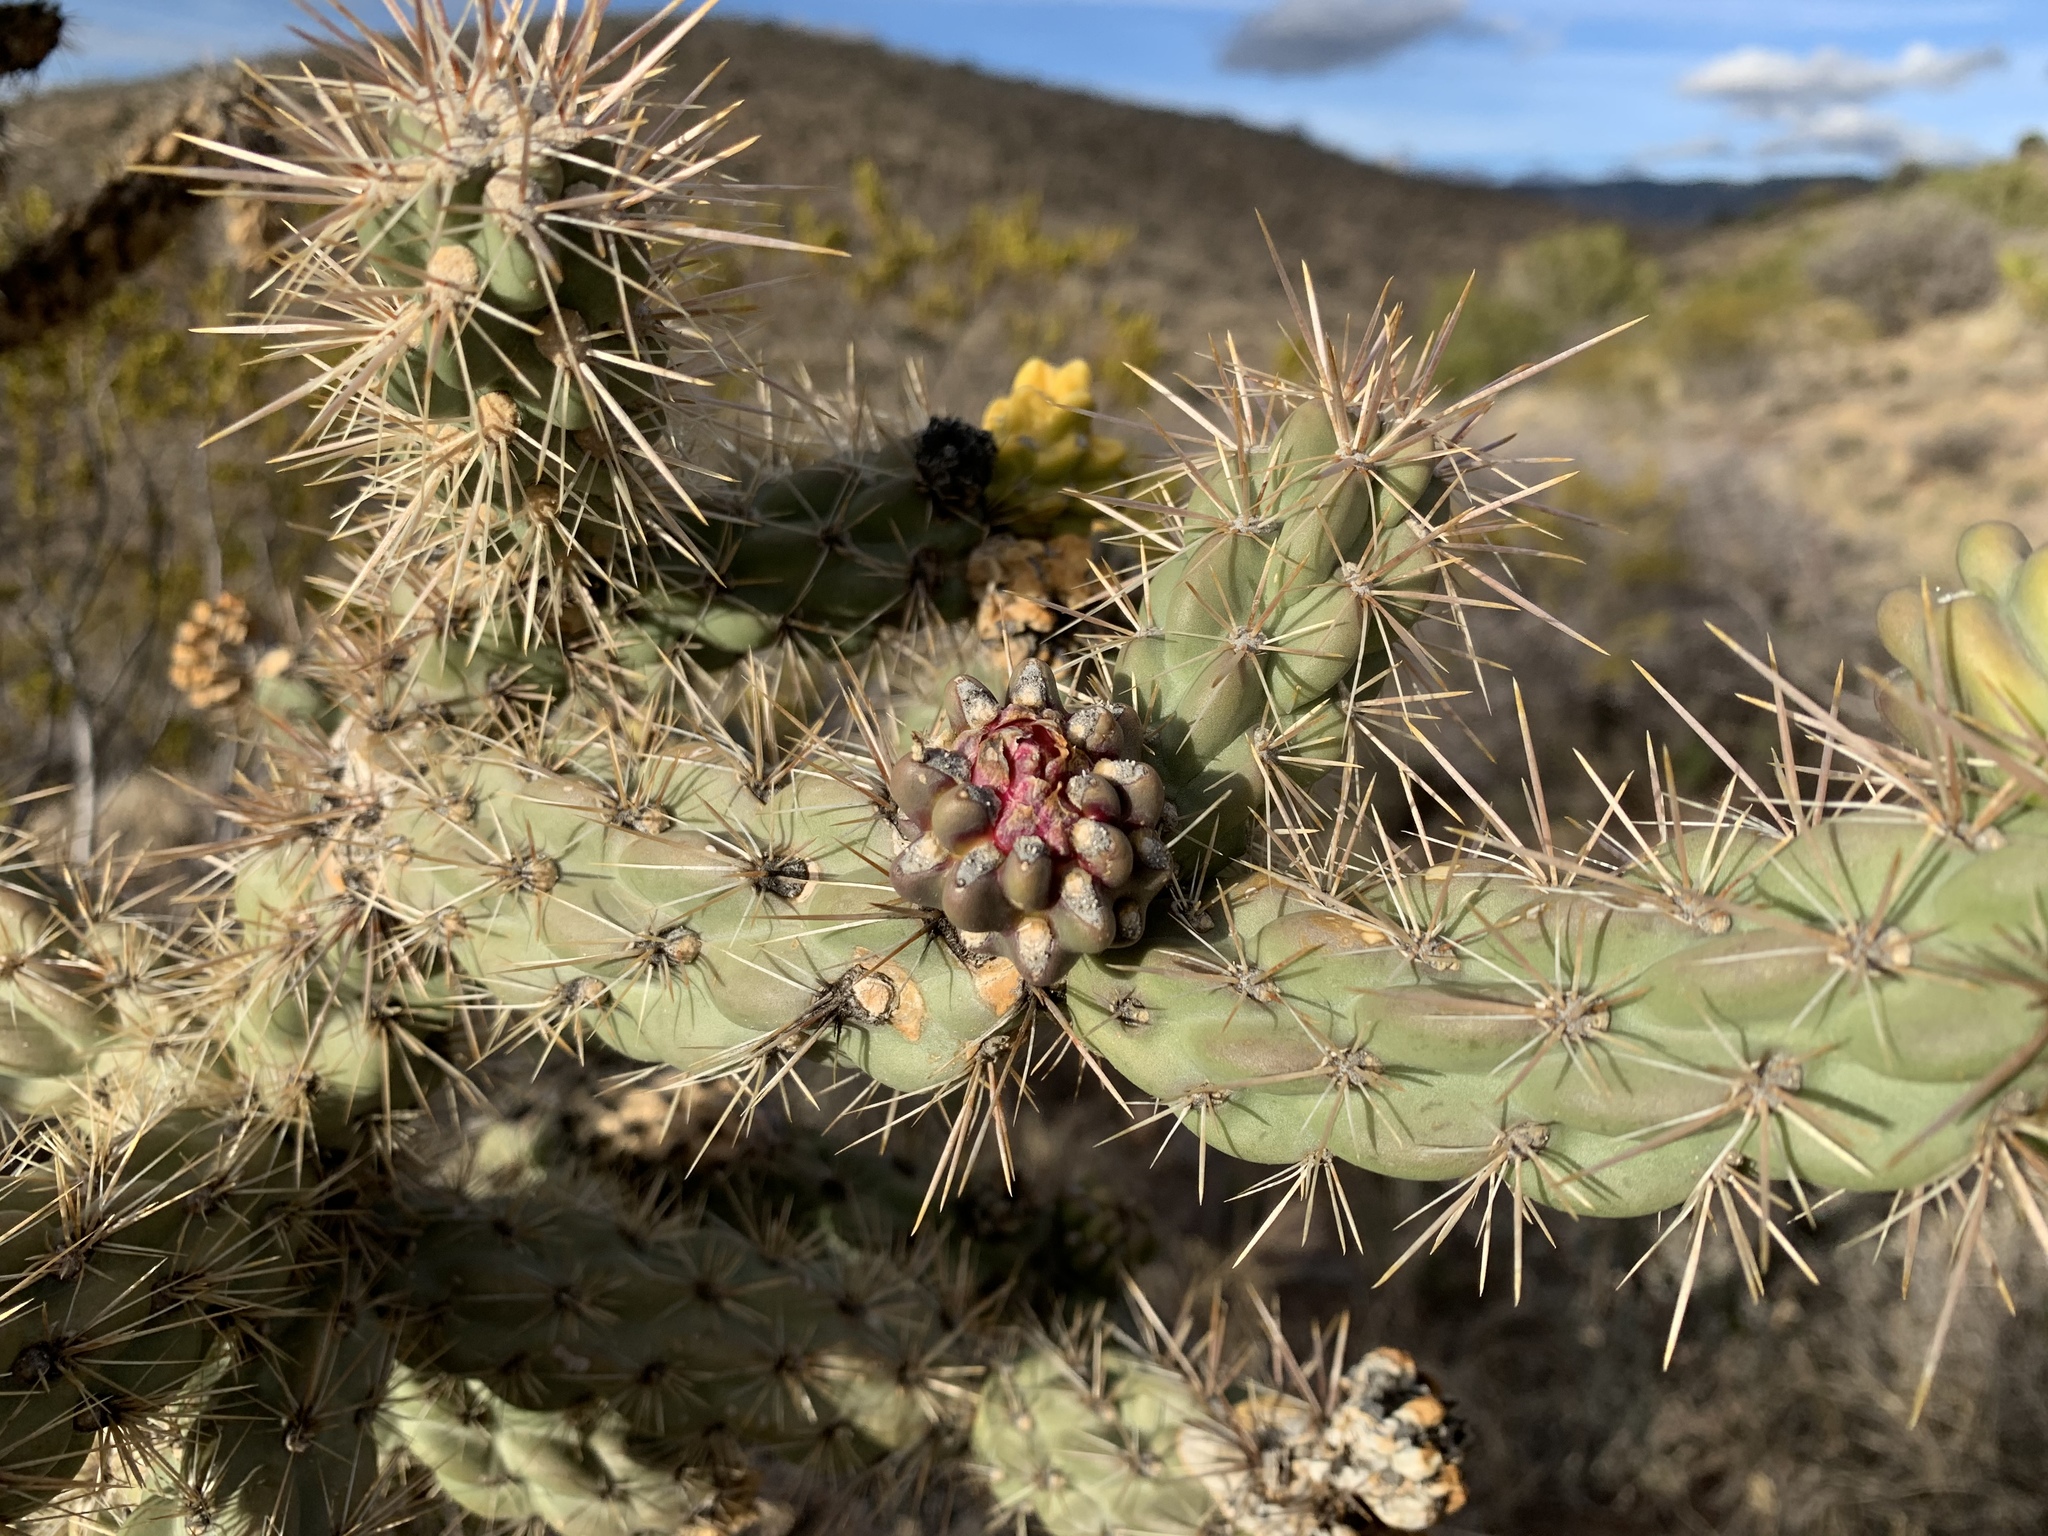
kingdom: Plantae
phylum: Tracheophyta
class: Magnoliopsida
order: Caryophyllales
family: Cactaceae
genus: Cylindropuntia
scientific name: Cylindropuntia imbricata
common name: Candelabrum cactus
